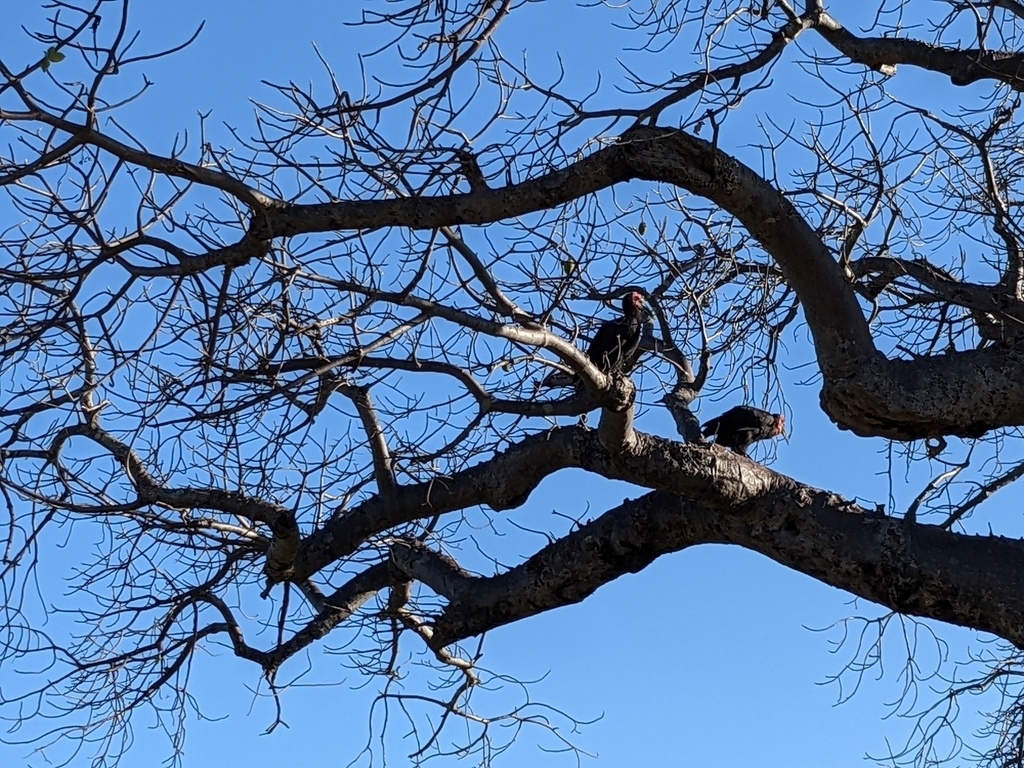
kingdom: Animalia
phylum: Chordata
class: Aves
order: Bucerotiformes
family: Bucorvidae
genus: Bucorvus
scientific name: Bucorvus leadbeateri
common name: Southern ground-hornbill
